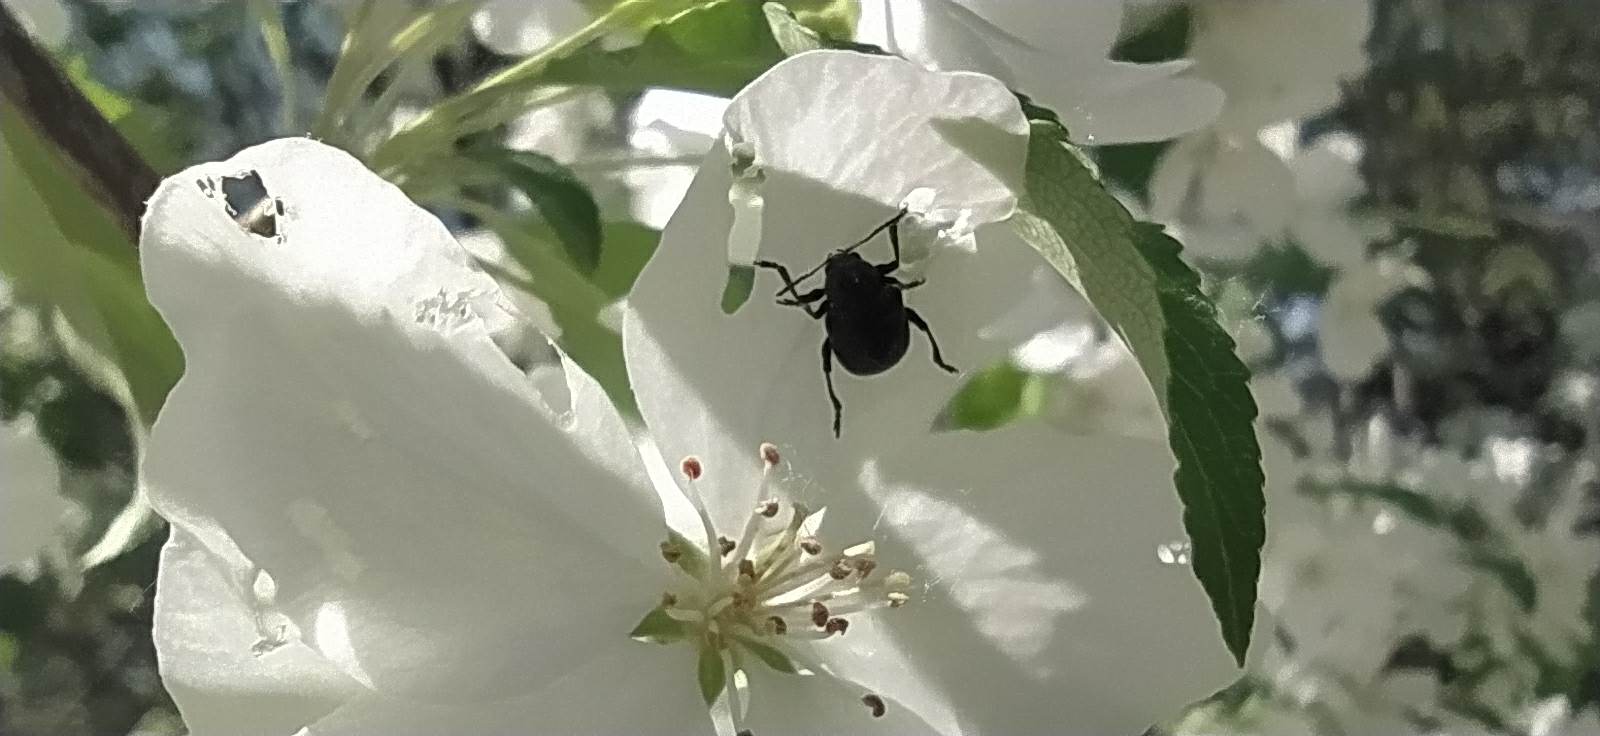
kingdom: Animalia
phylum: Arthropoda
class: Insecta
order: Coleoptera
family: Chrysomelidae
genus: Bromius
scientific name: Bromius obscurus
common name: Western grape rootworm
